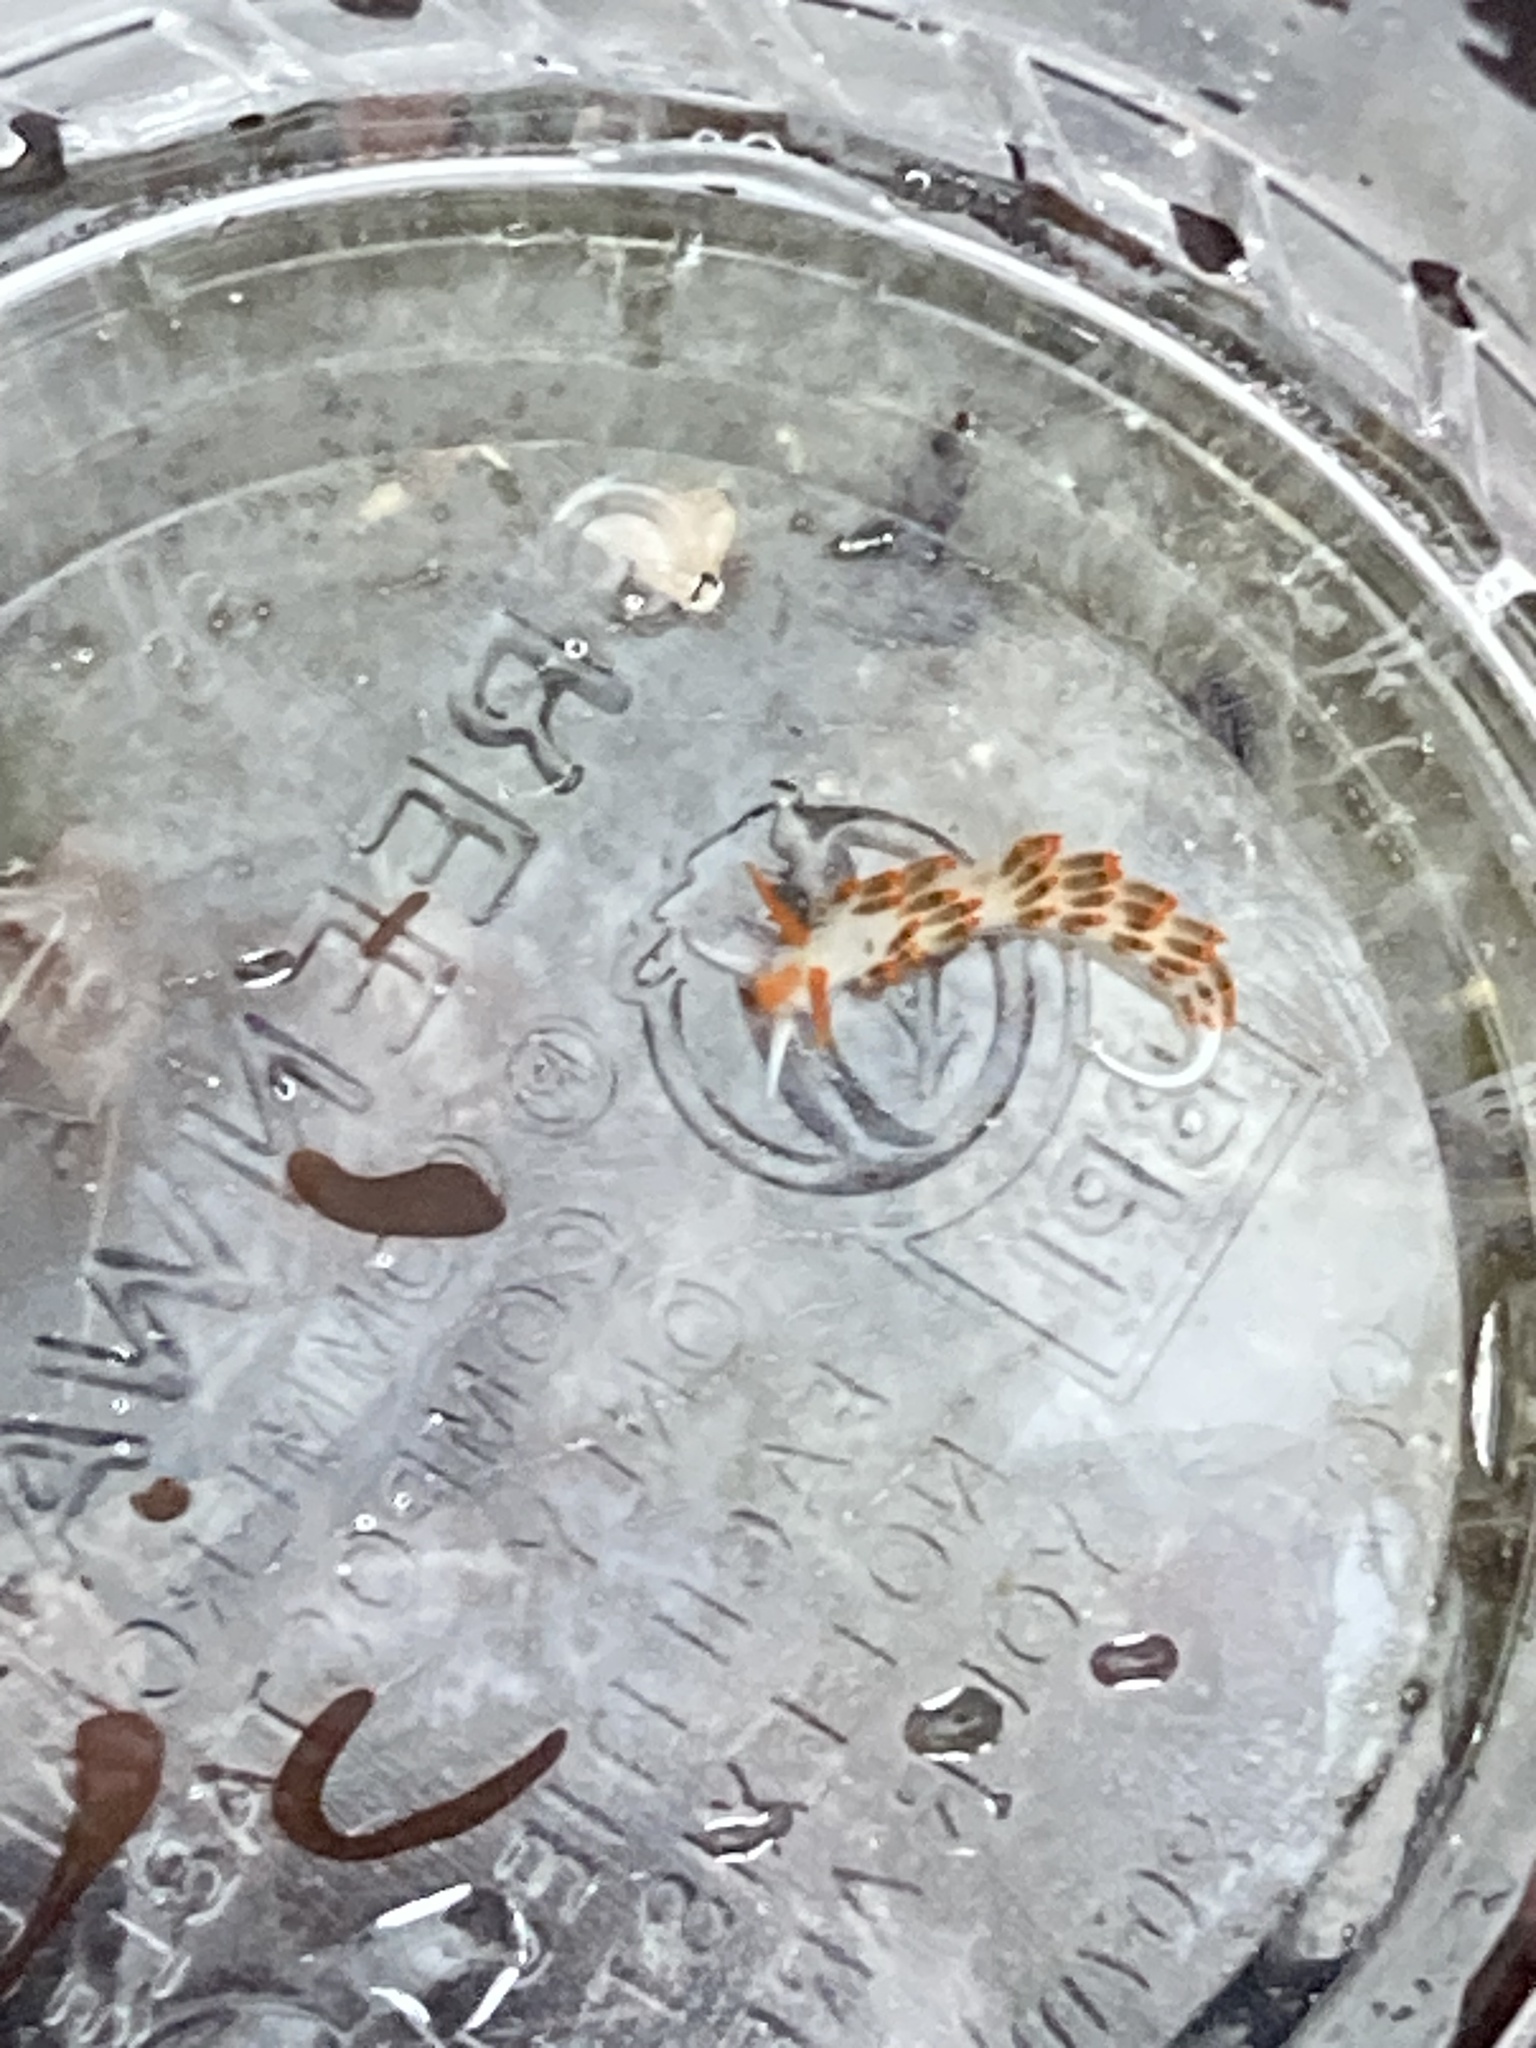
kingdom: Animalia
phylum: Mollusca
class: Gastropoda
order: Nudibranchia
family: Trinchesiidae
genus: Diaphoreolis
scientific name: Diaphoreolis lagunae
